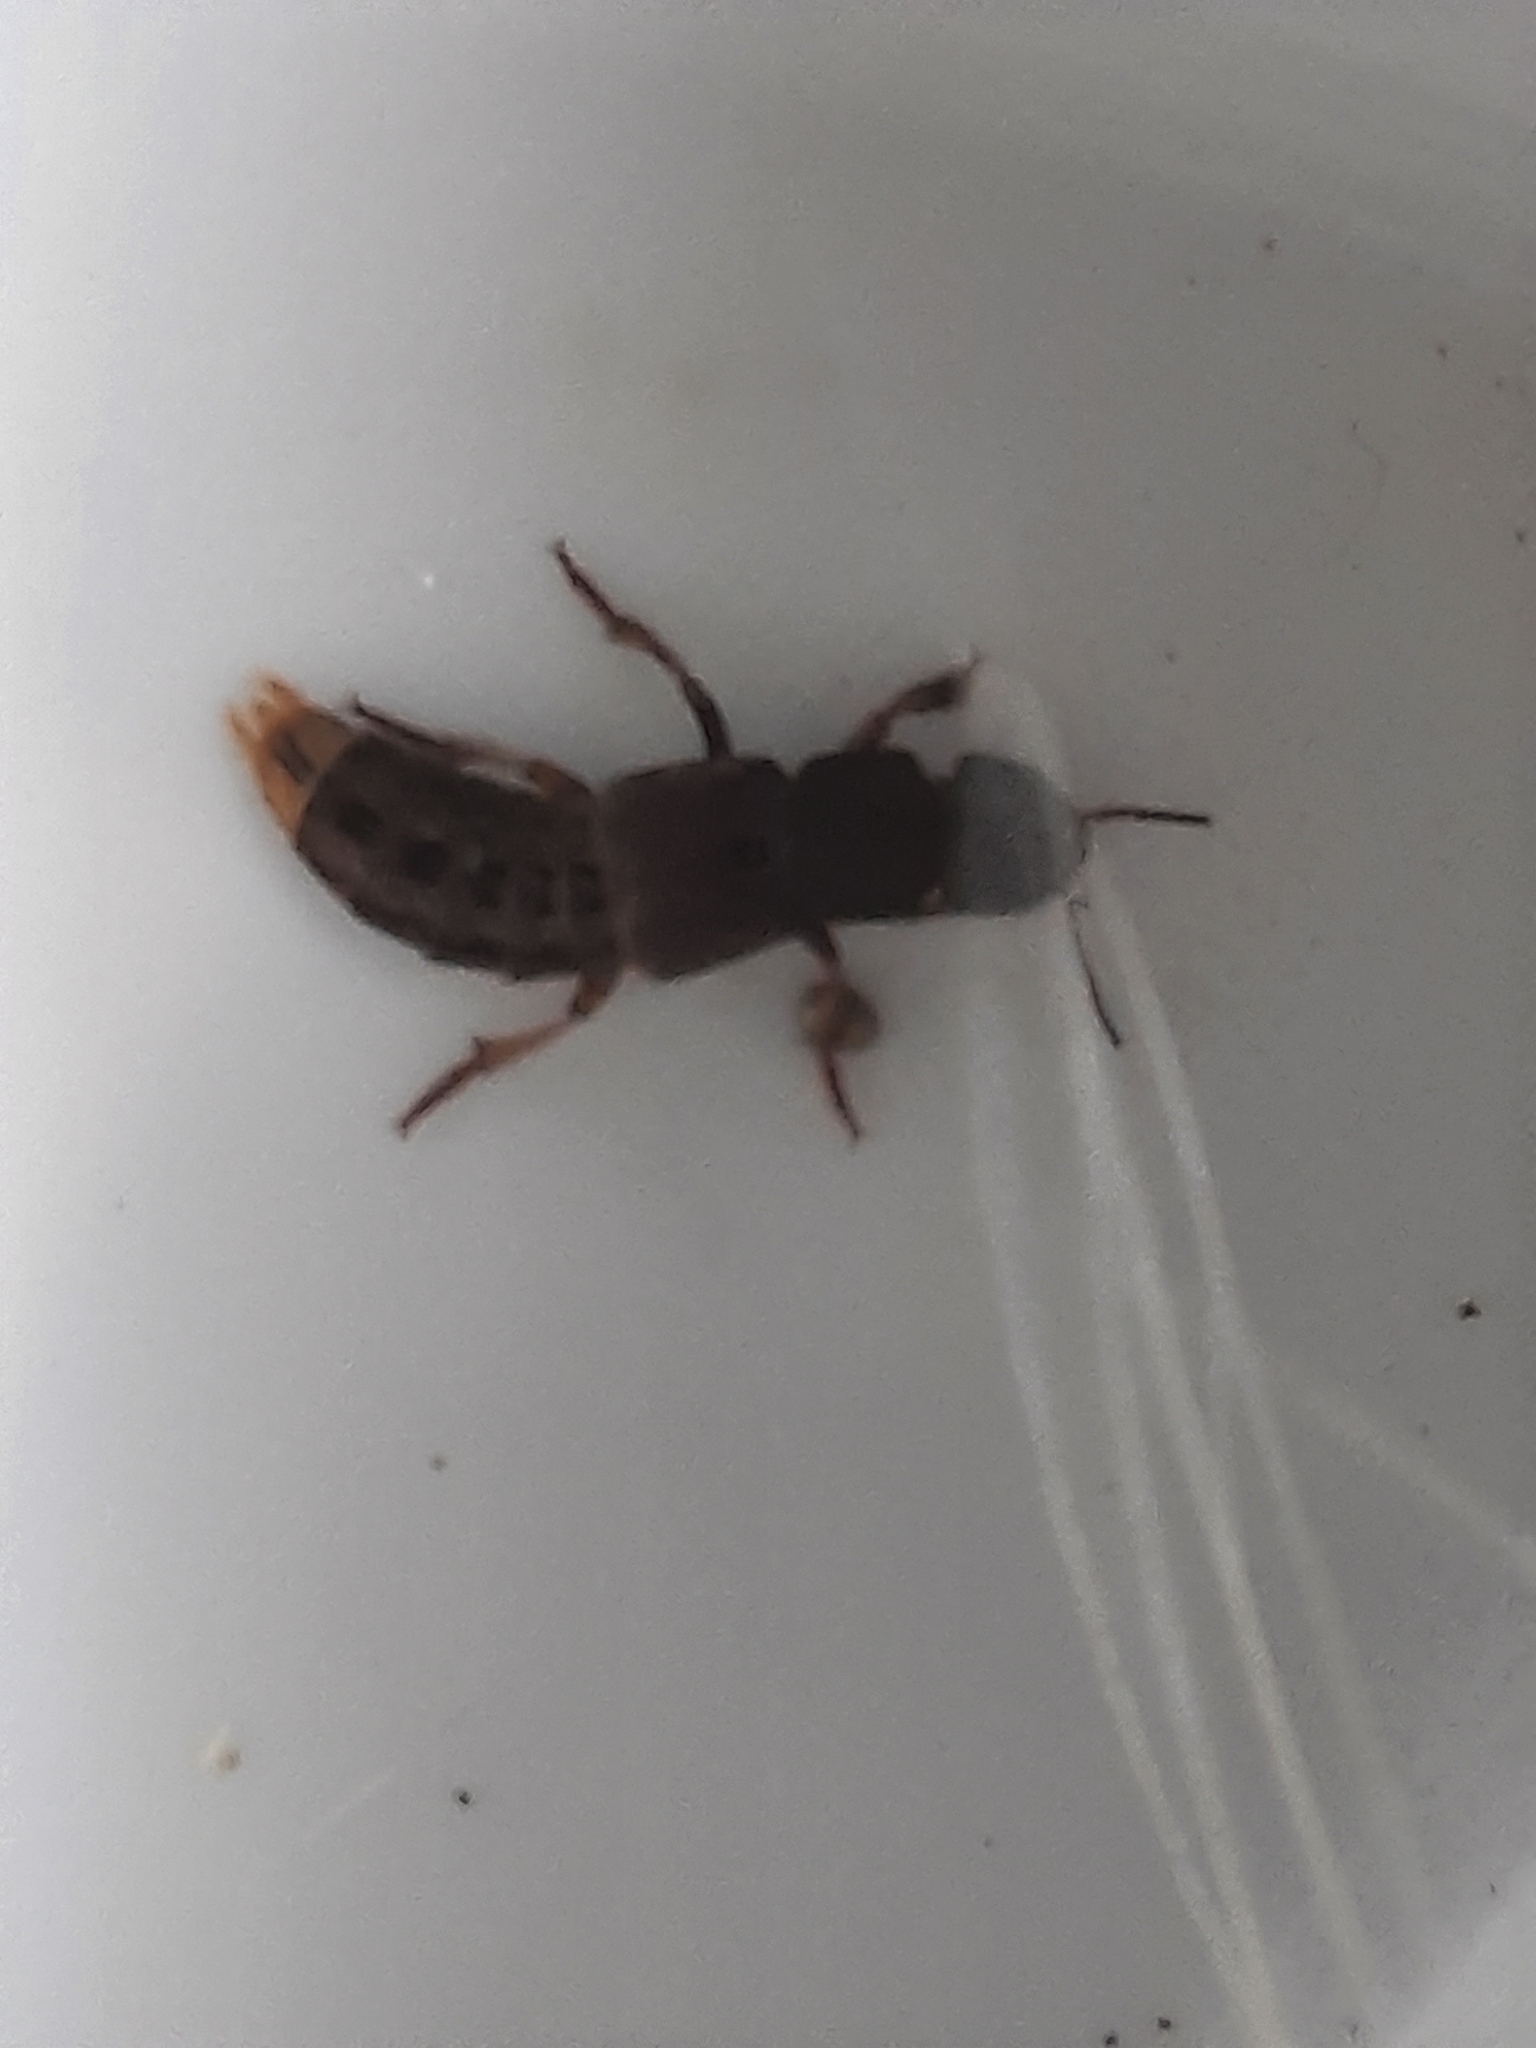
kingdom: Animalia
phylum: Arthropoda
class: Insecta
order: Coleoptera
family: Staphylinidae
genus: Platydracus
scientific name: Platydracus maculosus
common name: Brown rove beetle
